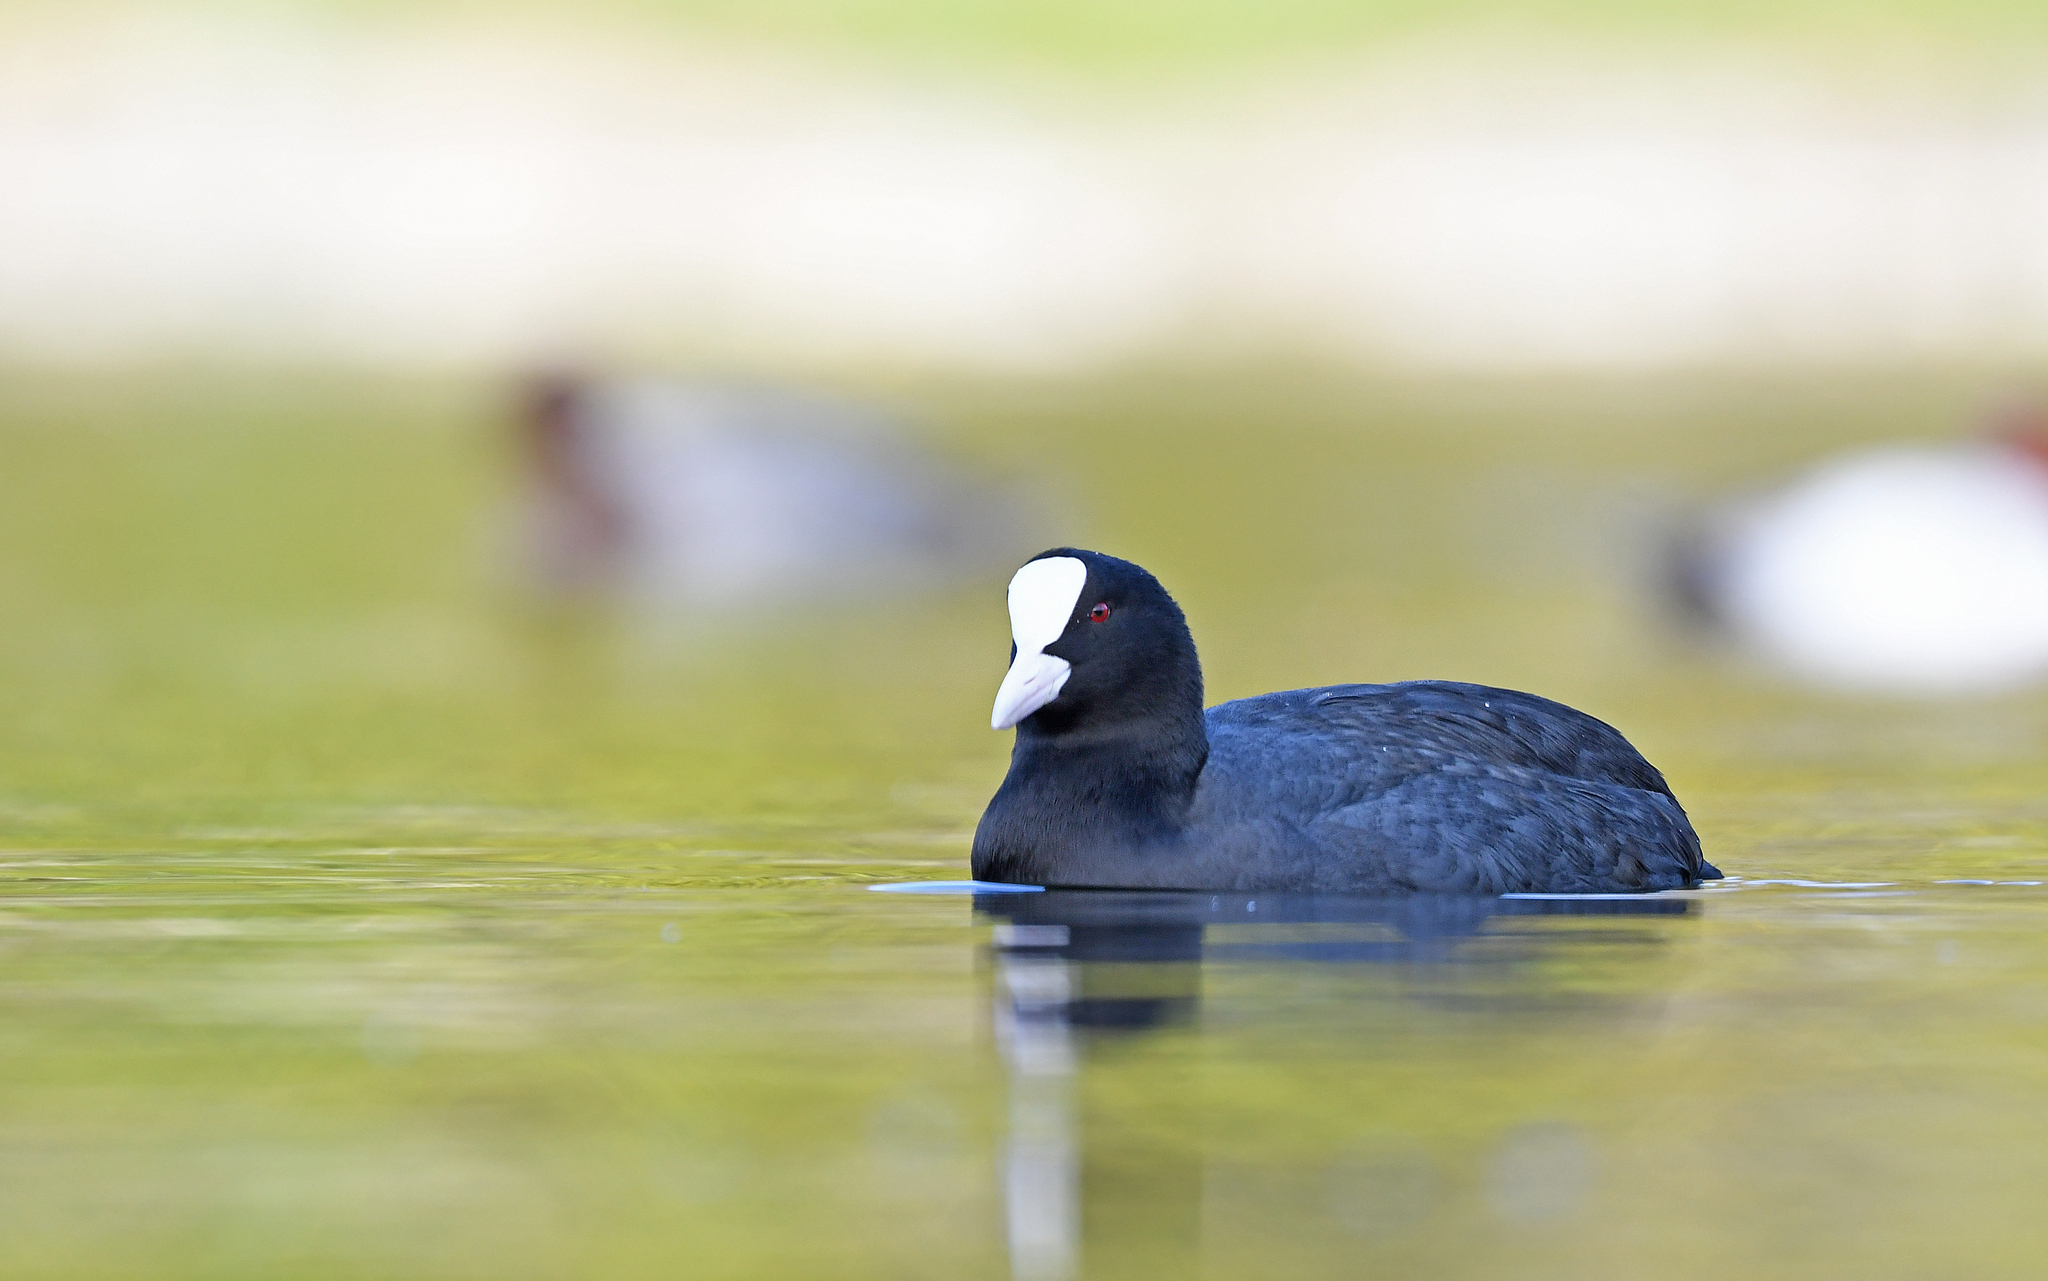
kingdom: Animalia
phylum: Chordata
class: Aves
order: Gruiformes
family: Rallidae
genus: Fulica
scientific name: Fulica atra
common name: Eurasian coot
